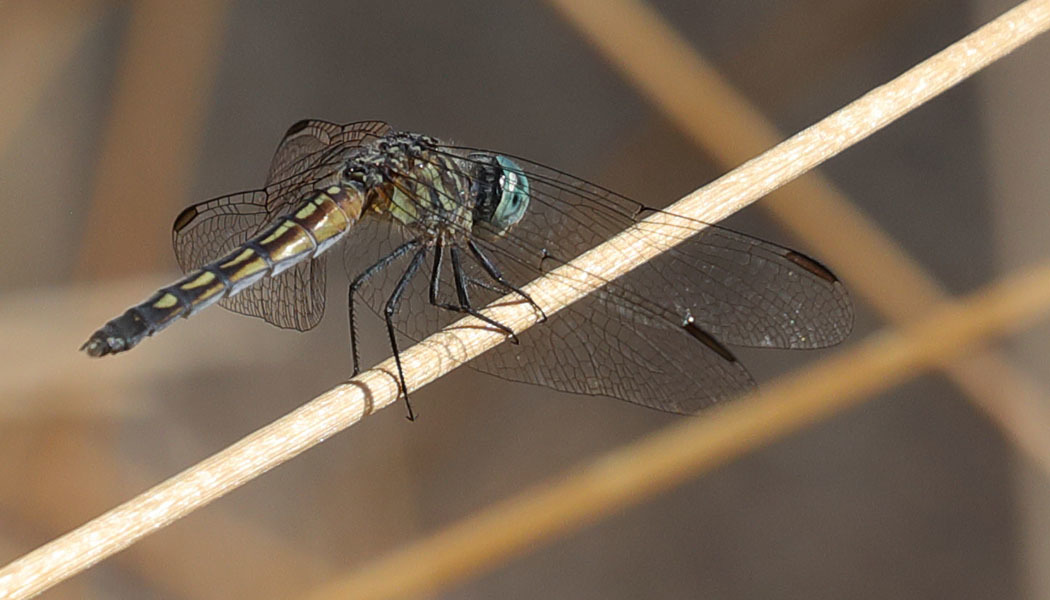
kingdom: Animalia
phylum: Arthropoda
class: Insecta
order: Odonata
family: Libellulidae
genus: Pachydiplax
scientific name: Pachydiplax longipennis
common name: Blue dasher
